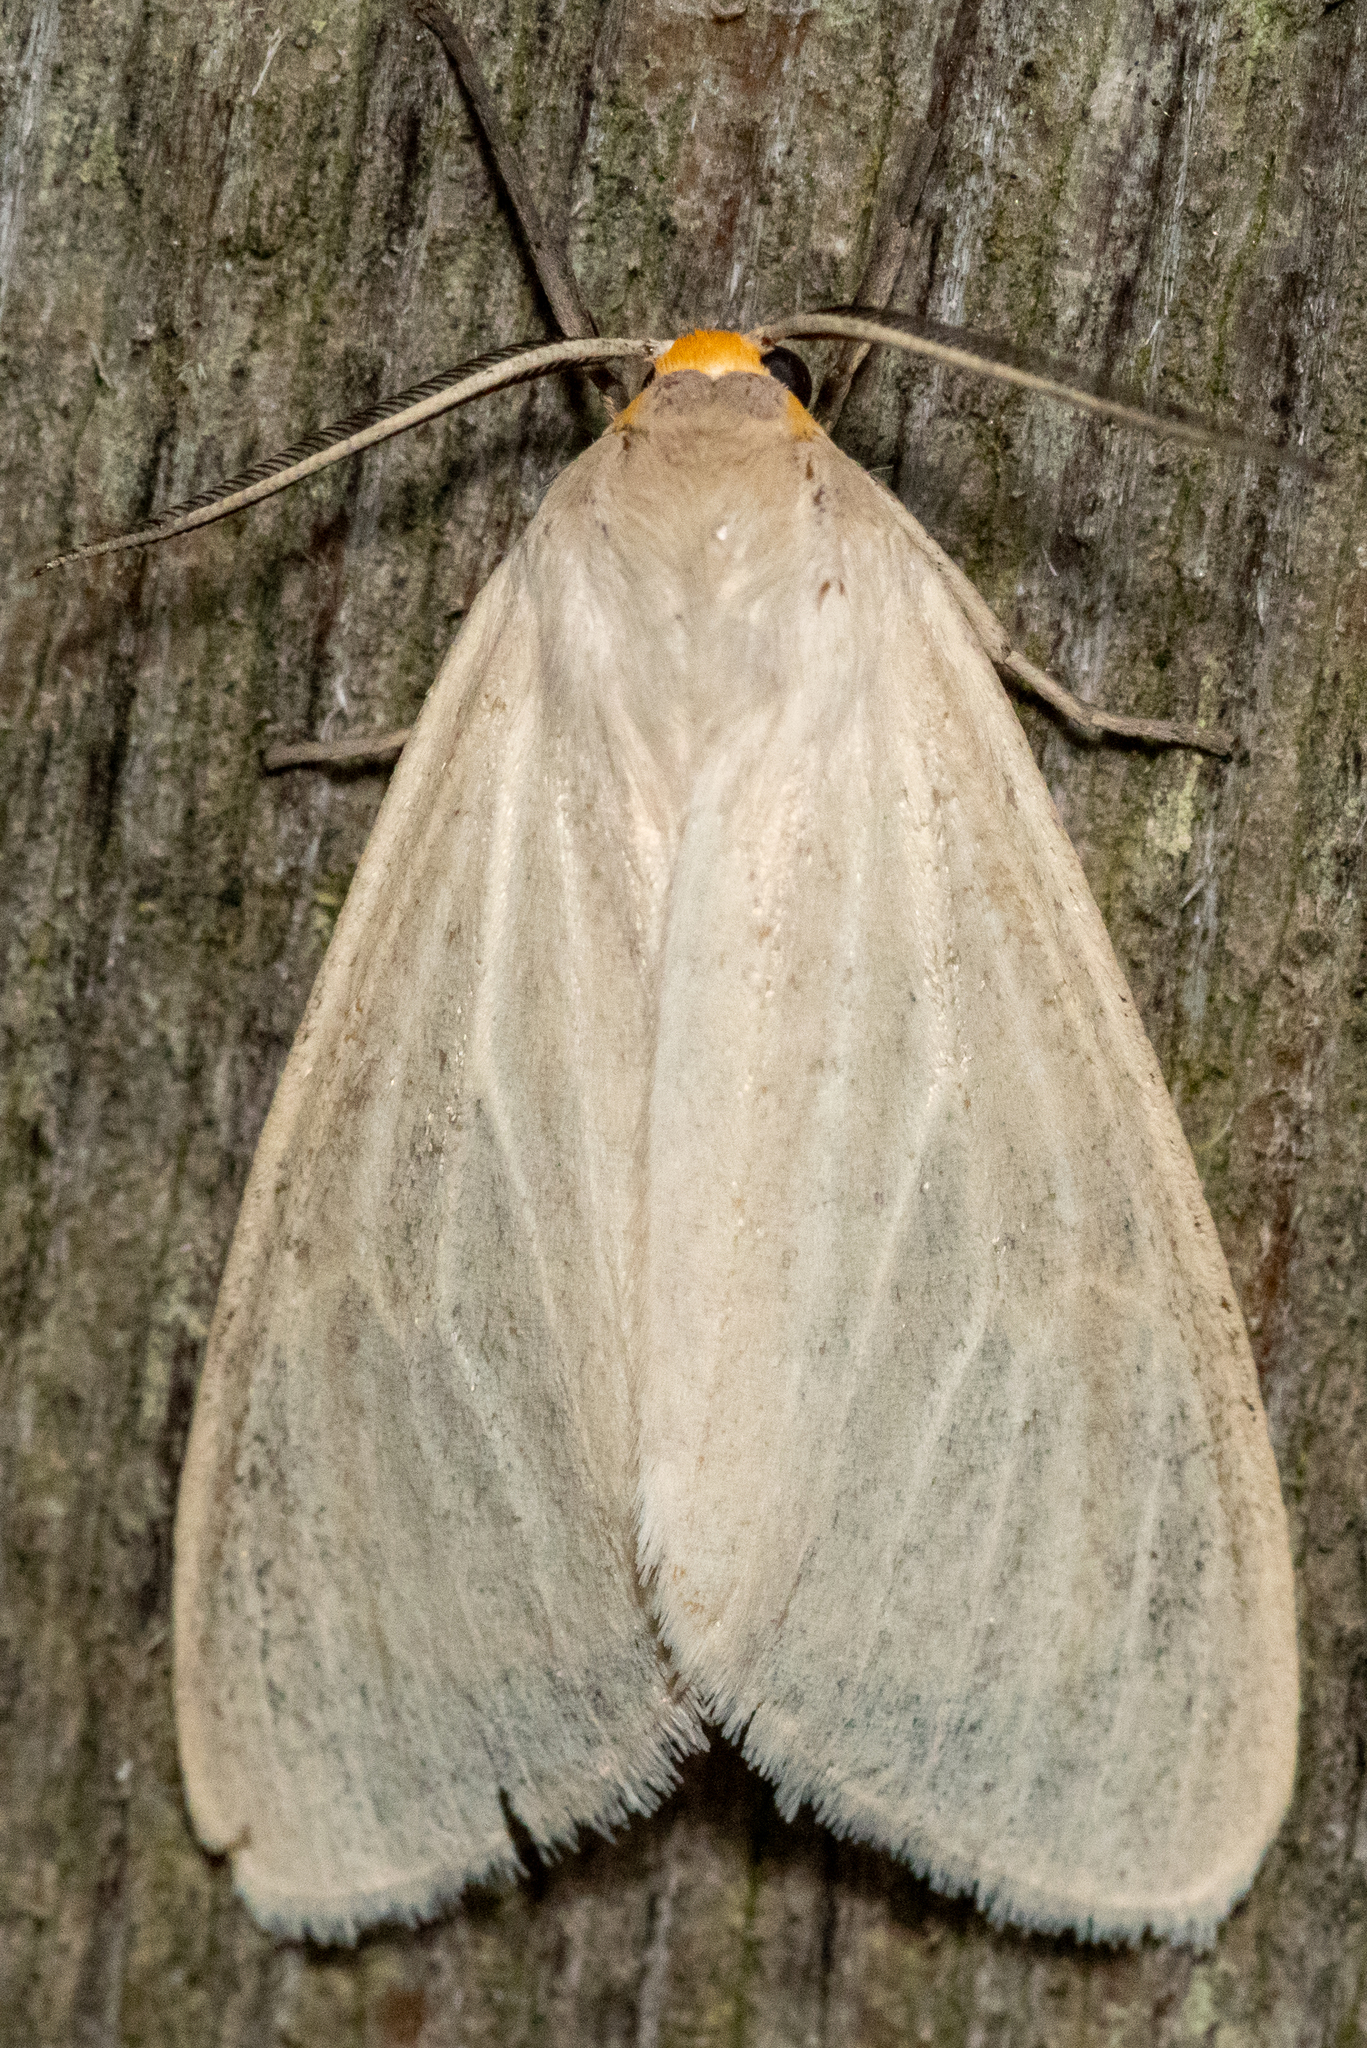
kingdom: Animalia
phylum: Arthropoda
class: Insecta
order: Lepidoptera
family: Erebidae
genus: Cycnia
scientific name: Cycnia oregonensis
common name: Oregon cycnia moth
